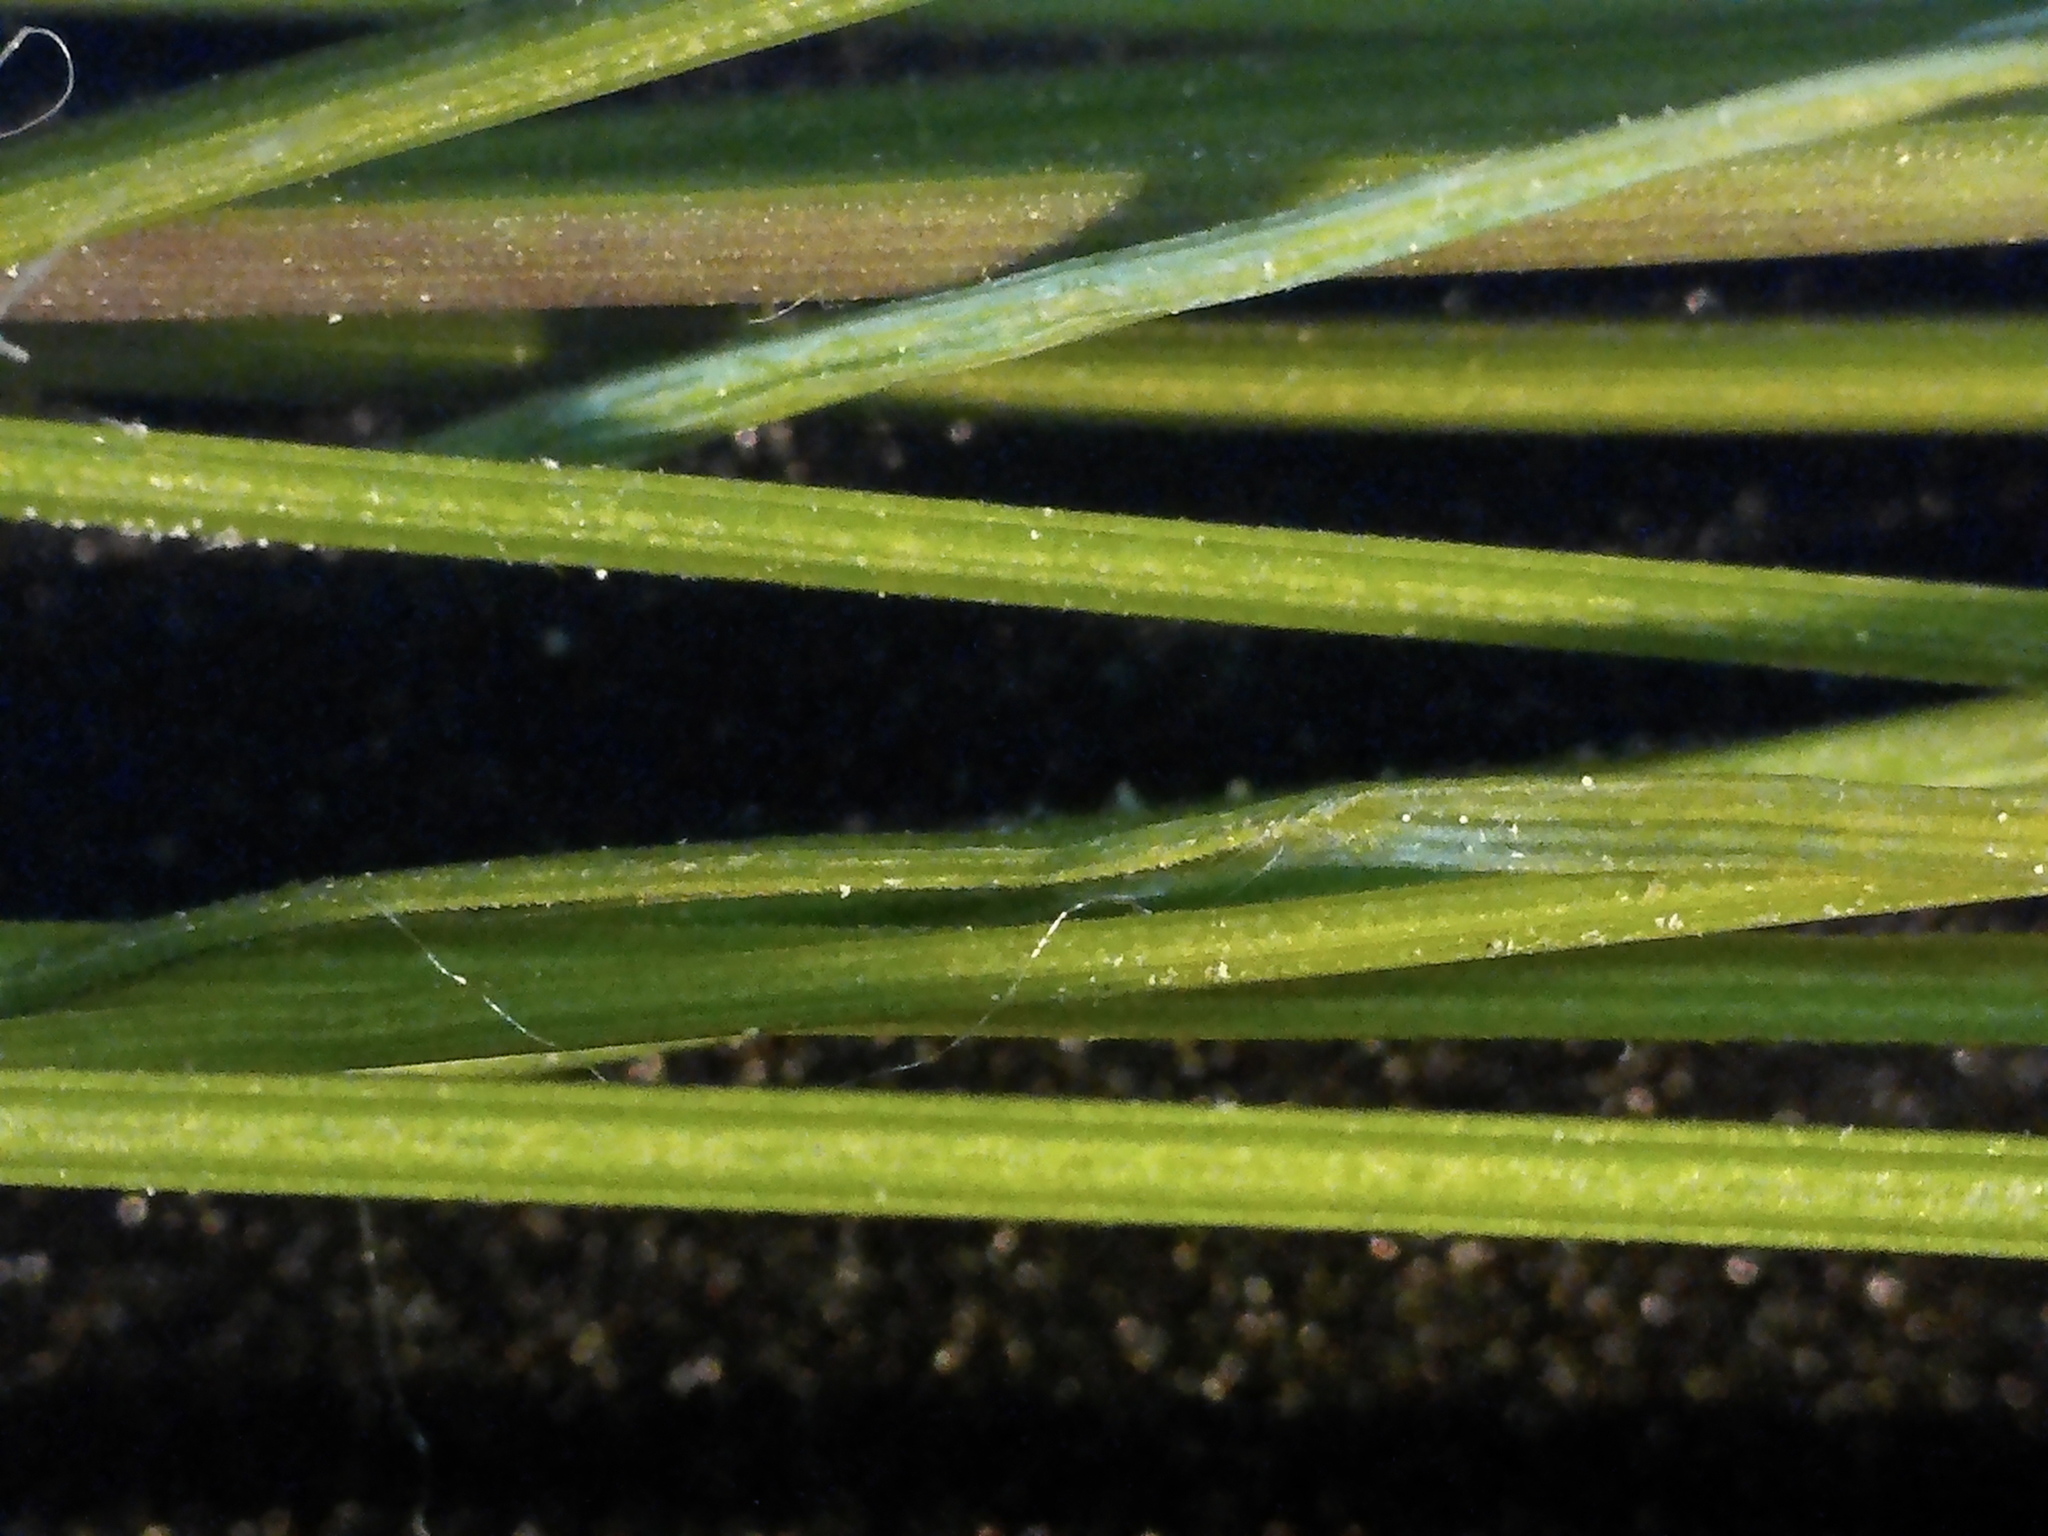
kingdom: Plantae
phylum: Tracheophyta
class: Liliopsida
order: Poales
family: Cyperaceae
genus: Trichophorum
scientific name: Trichophorum clintonii
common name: Clinton's bulrush
